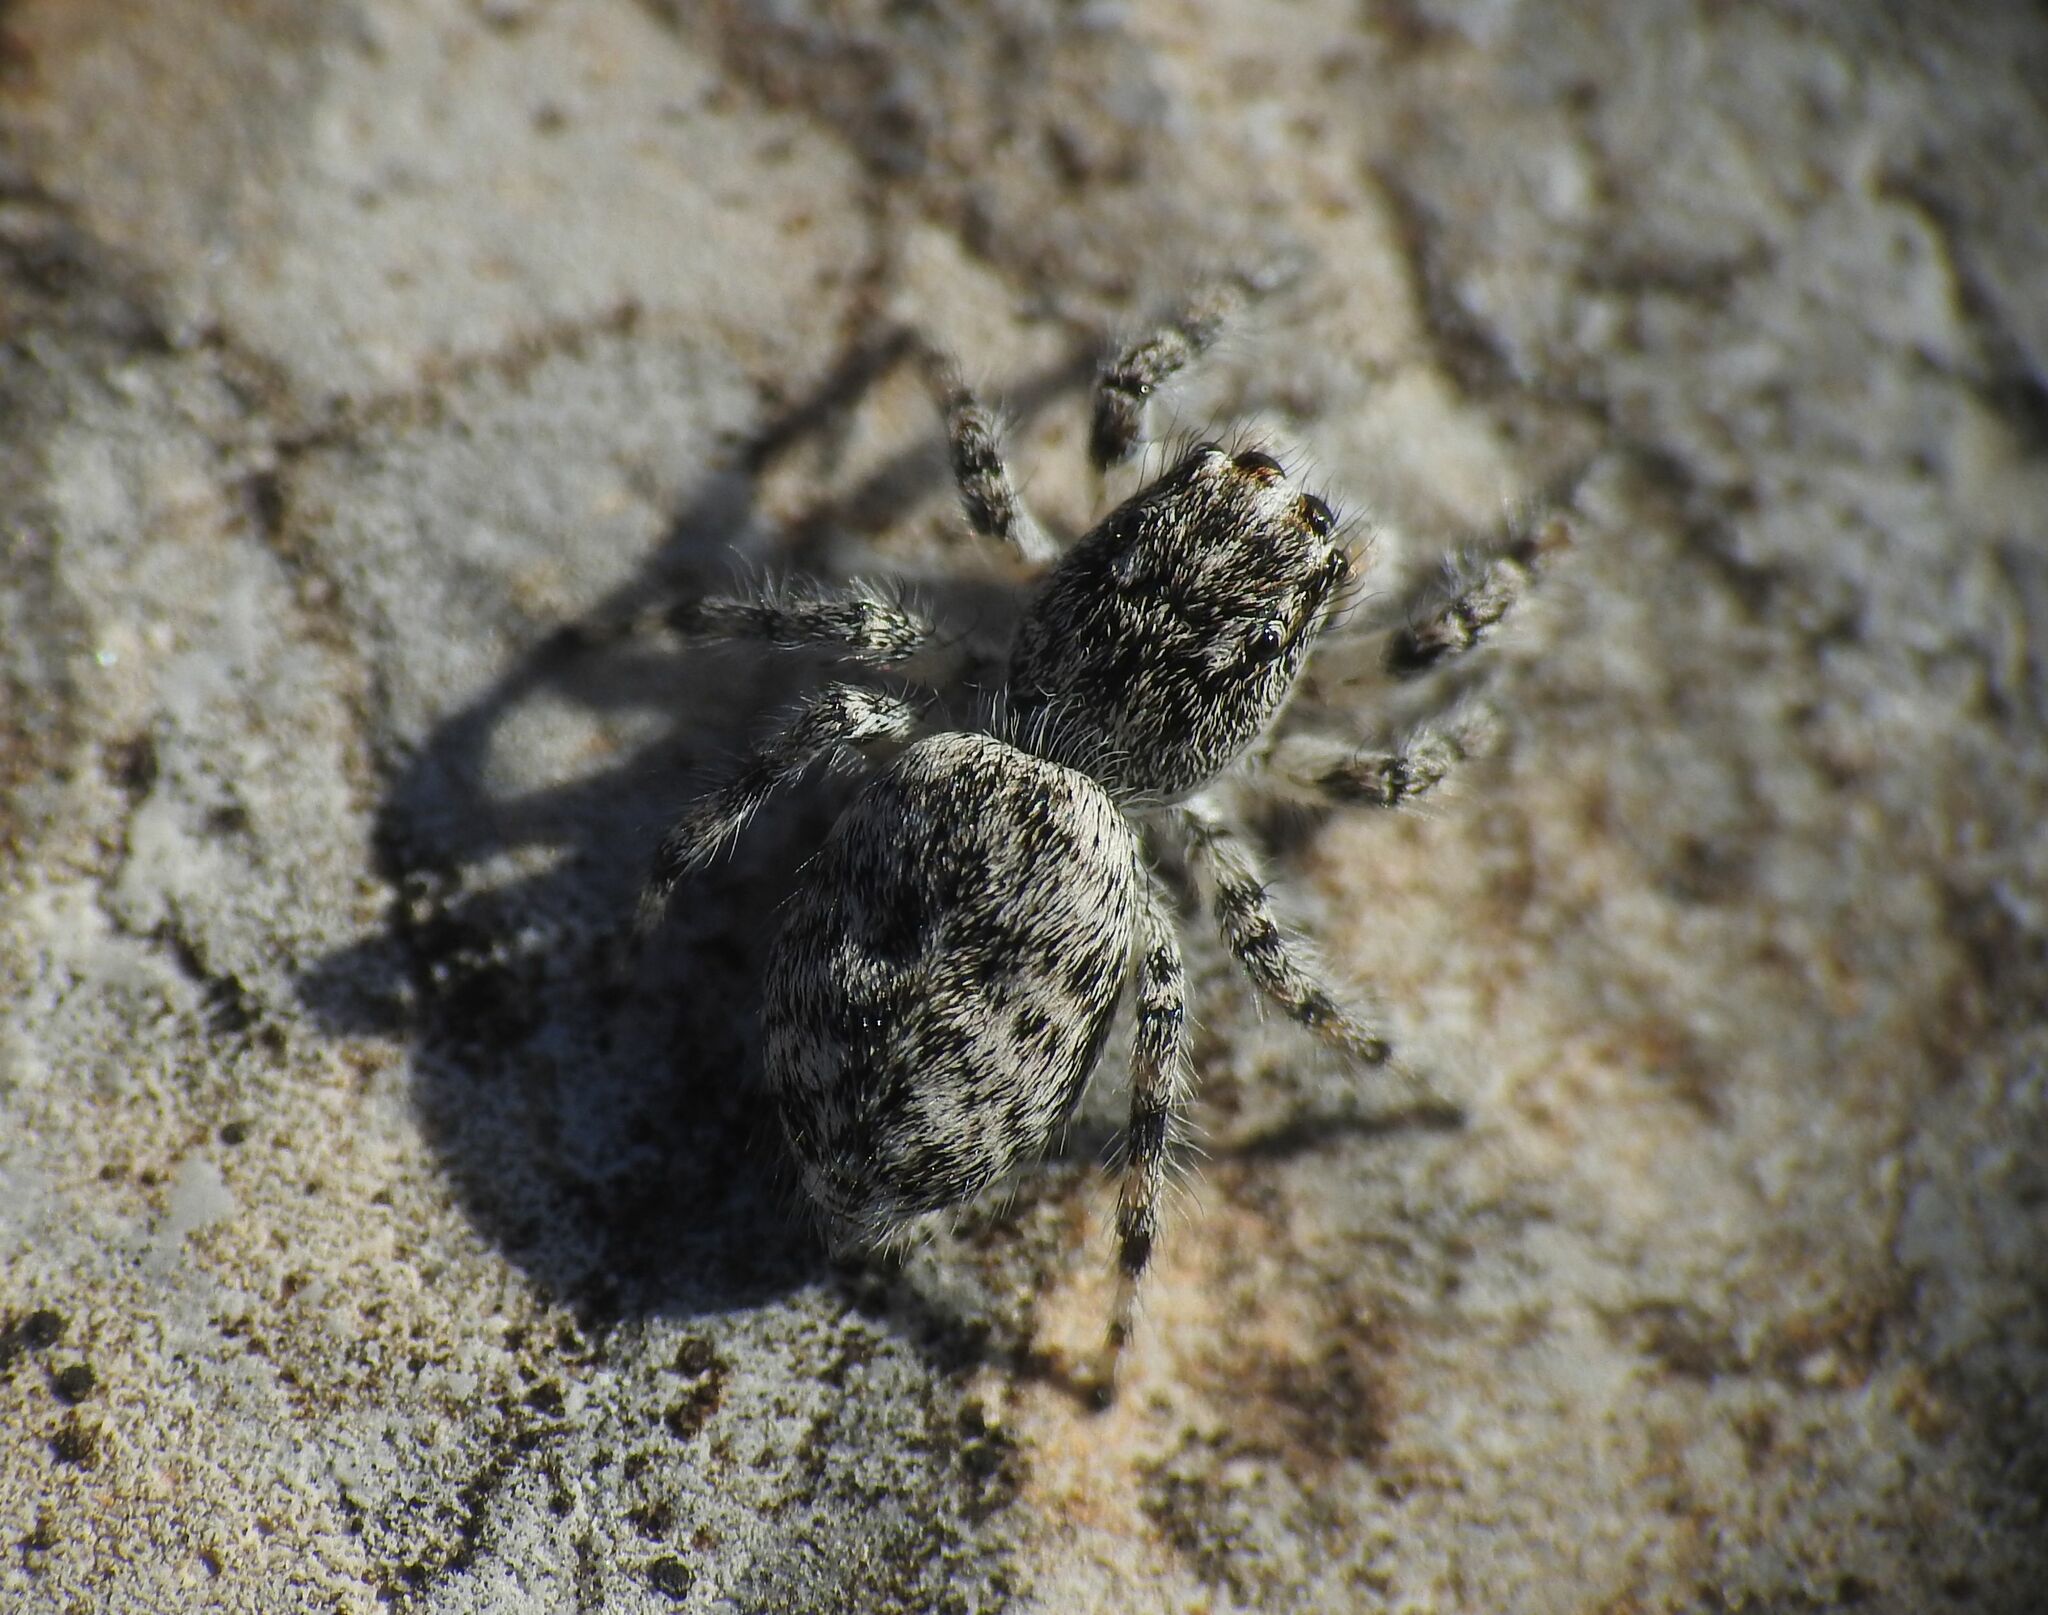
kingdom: Animalia
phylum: Arthropoda
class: Arachnida
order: Araneae
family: Salticidae
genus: Salticus
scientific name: Salticus conjonctus
